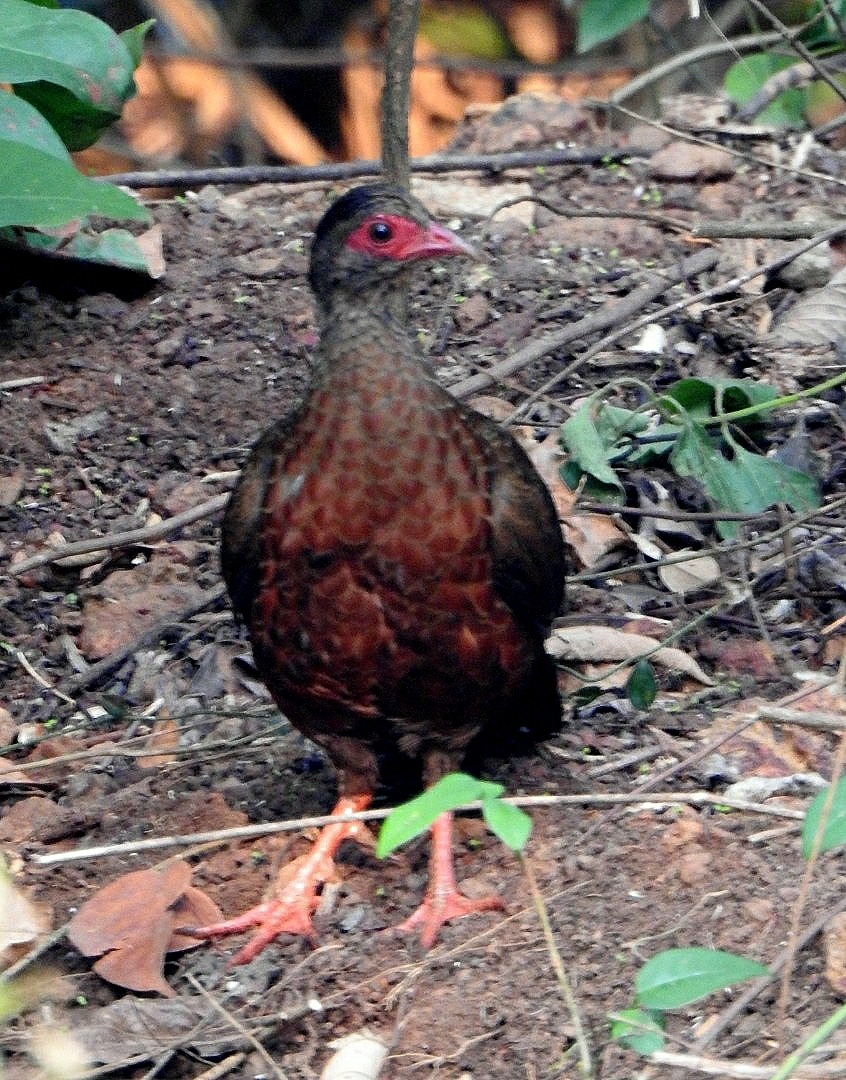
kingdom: Animalia
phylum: Chordata
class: Aves
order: Galliformes
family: Phasianidae
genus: Galloperdix
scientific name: Galloperdix spadicea
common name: Red spurfowl
